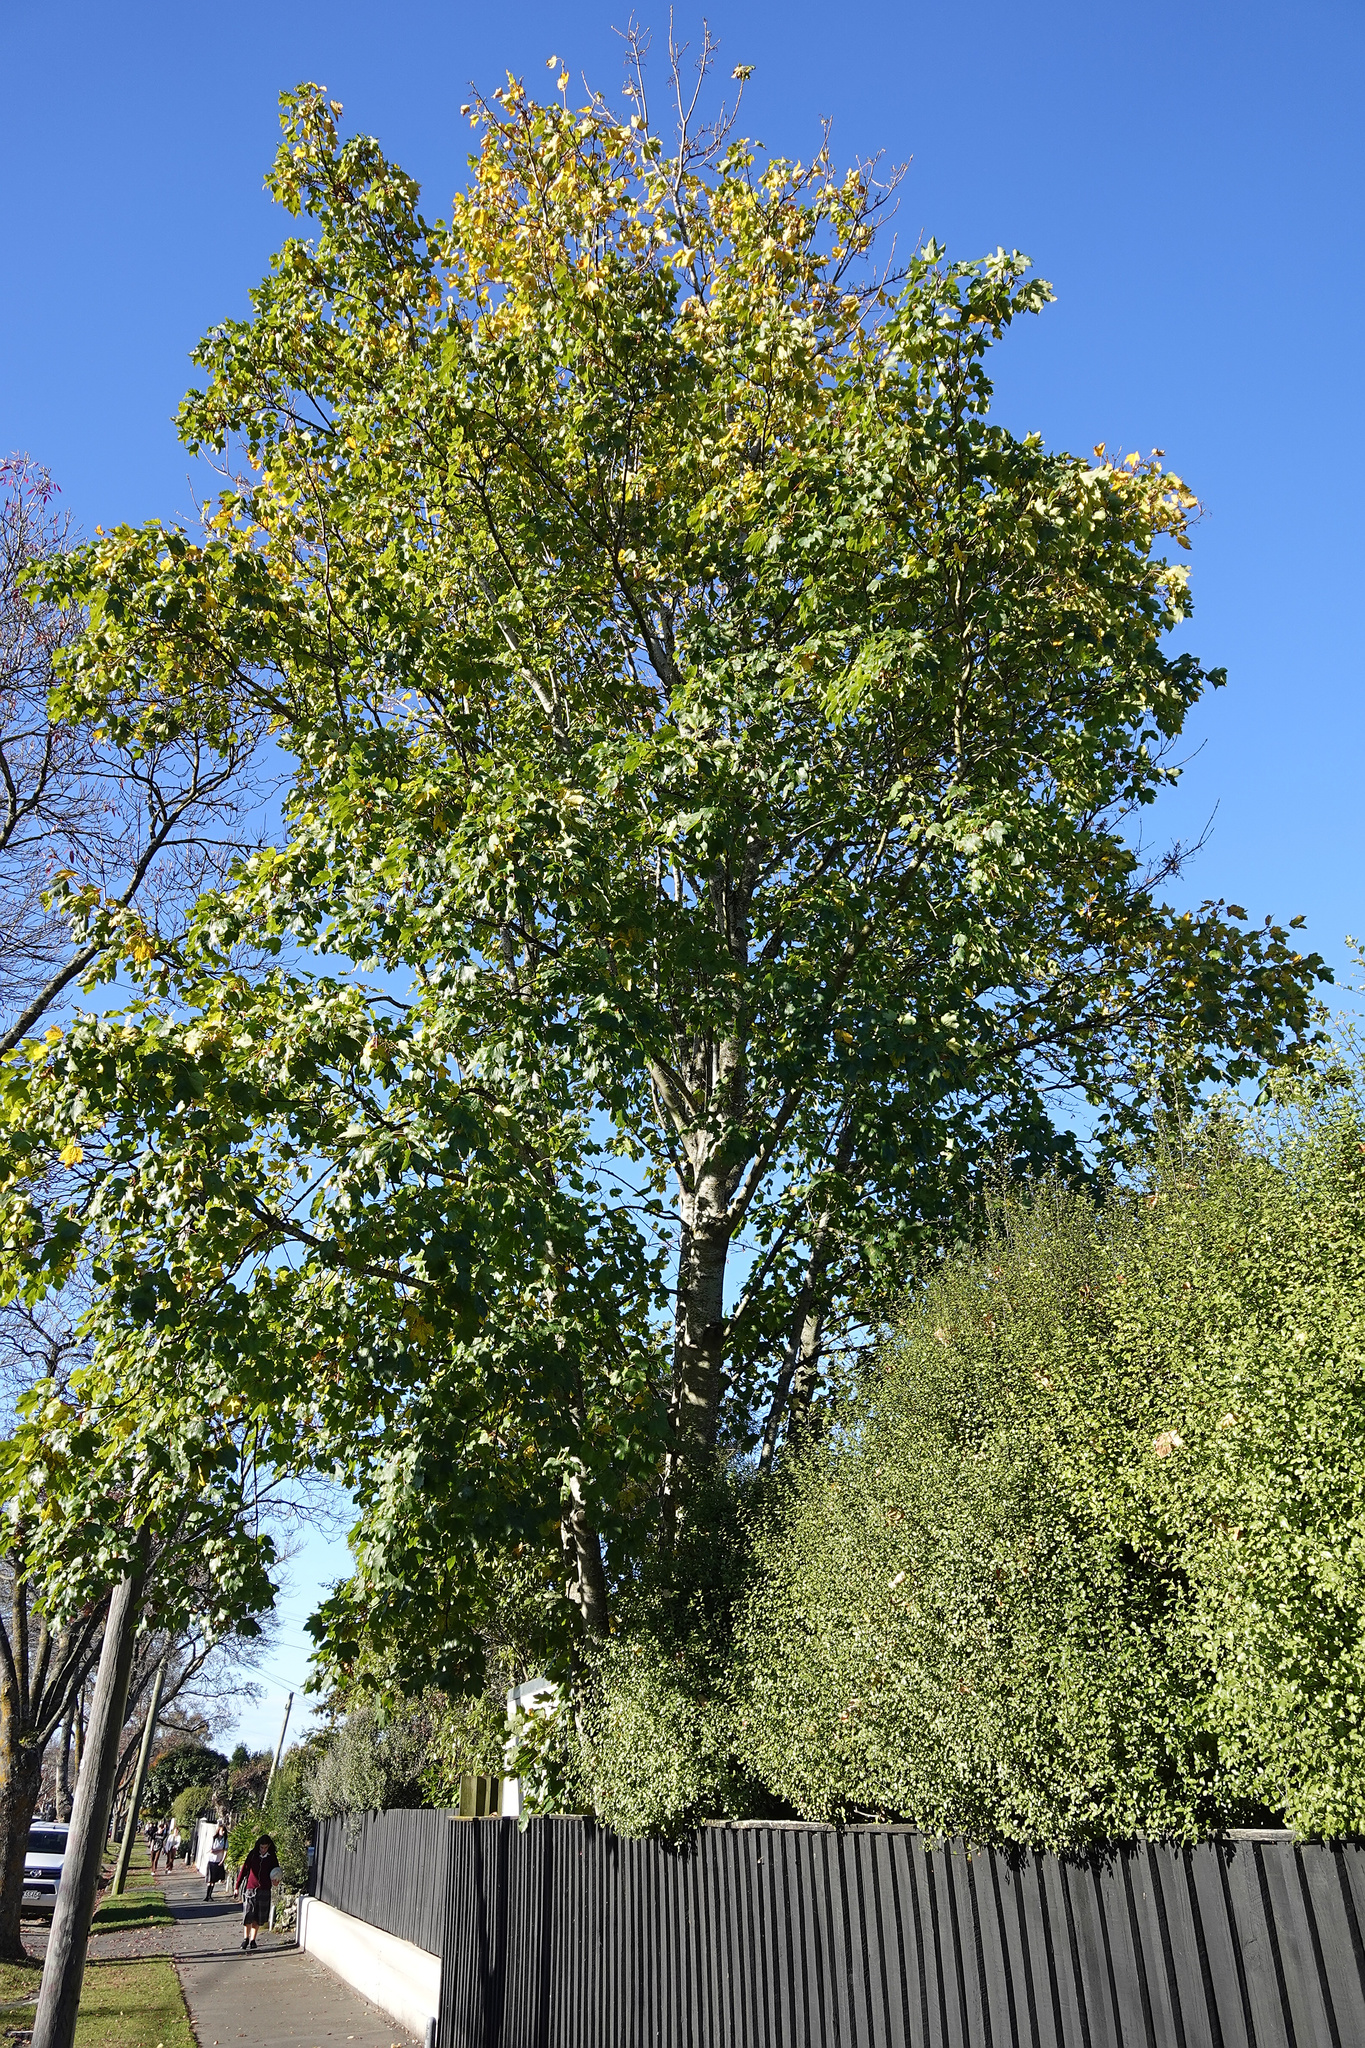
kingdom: Plantae
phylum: Tracheophyta
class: Magnoliopsida
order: Sapindales
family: Sapindaceae
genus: Acer
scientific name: Acer pseudoplatanus
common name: Sycamore
